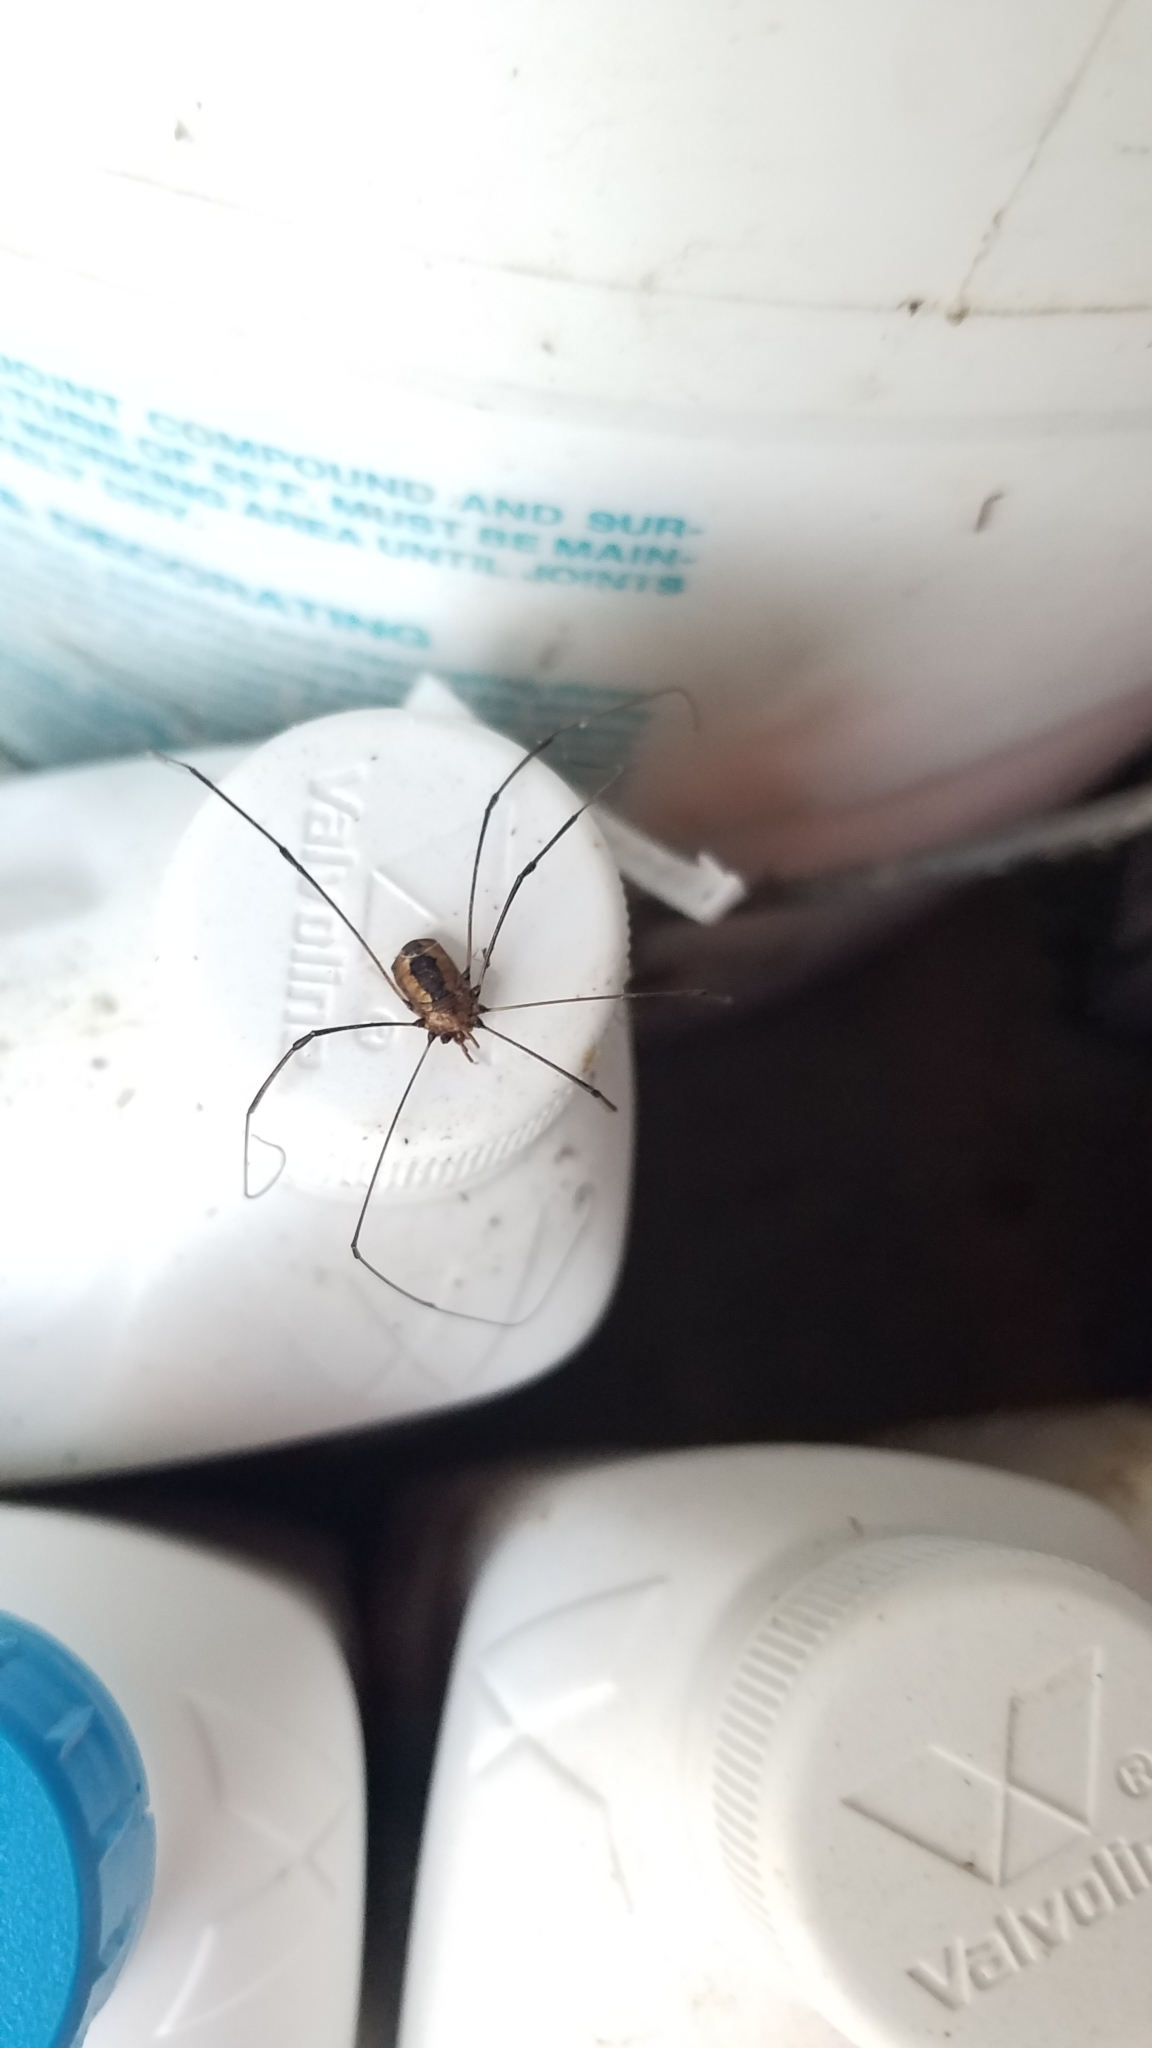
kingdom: Animalia
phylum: Arthropoda
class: Arachnida
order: Opiliones
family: Sclerosomatidae
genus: Leiobunum
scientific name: Leiobunum aldrichi
